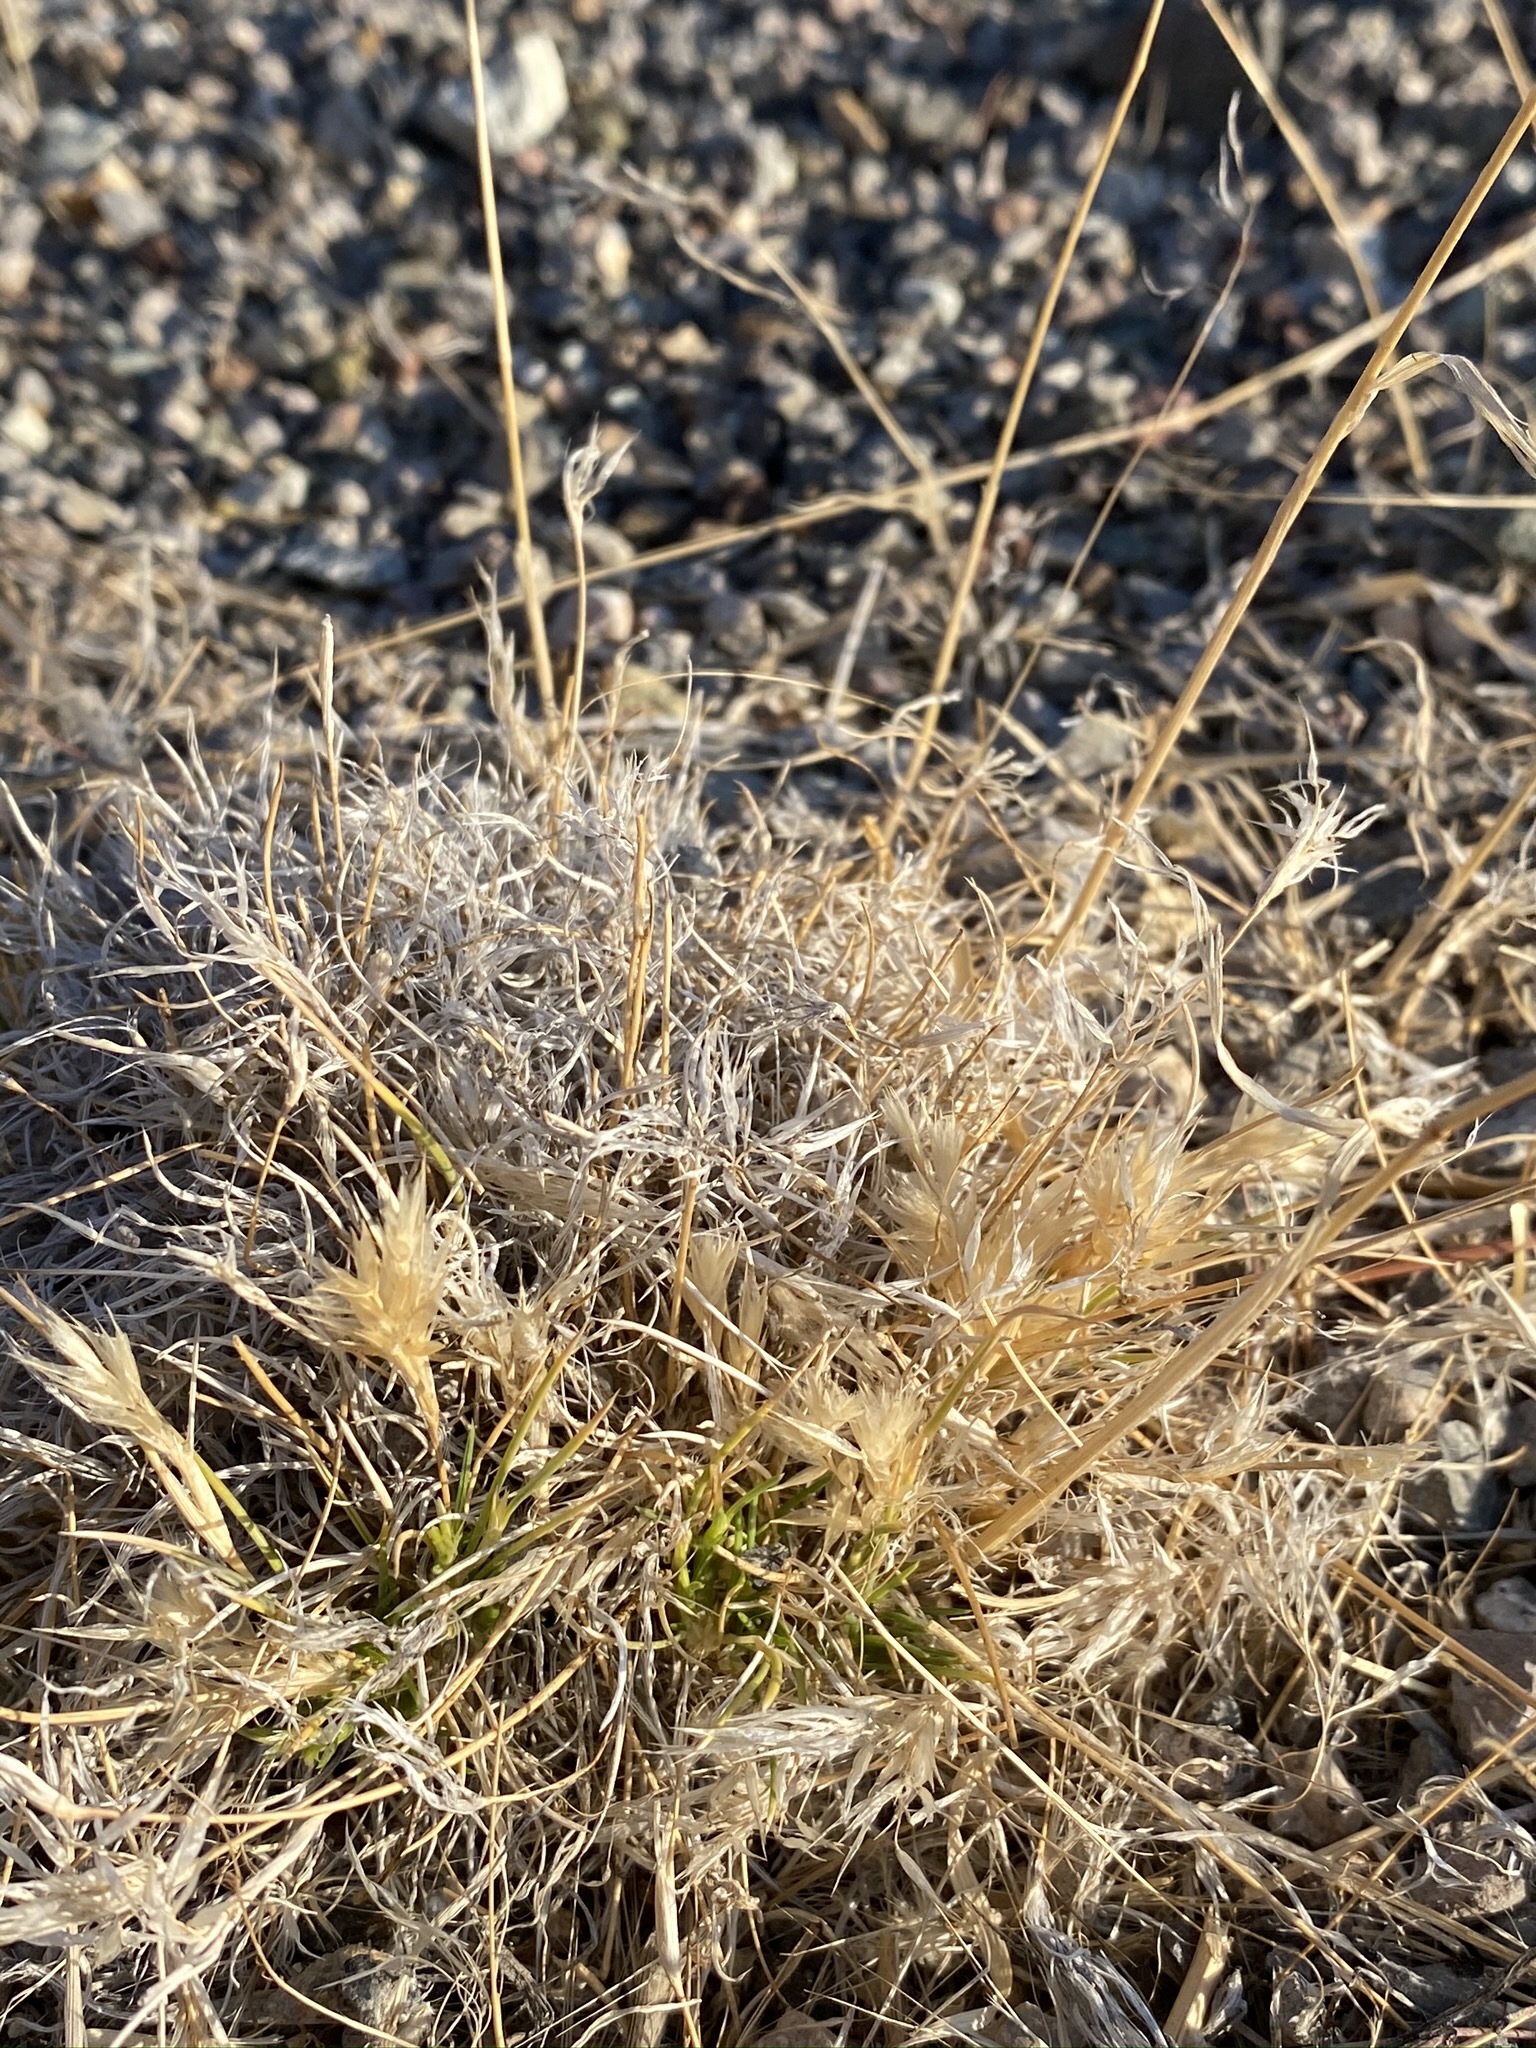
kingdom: Plantae
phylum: Tracheophyta
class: Liliopsida
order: Poales
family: Poaceae
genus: Blepharidachne
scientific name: Blepharidachne kingii
